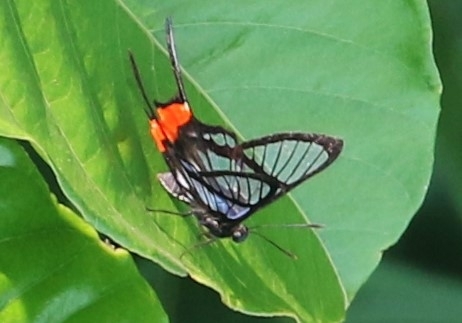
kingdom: Animalia
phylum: Arthropoda
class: Insecta
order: Lepidoptera
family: Riodinidae
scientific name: Riodinidae
